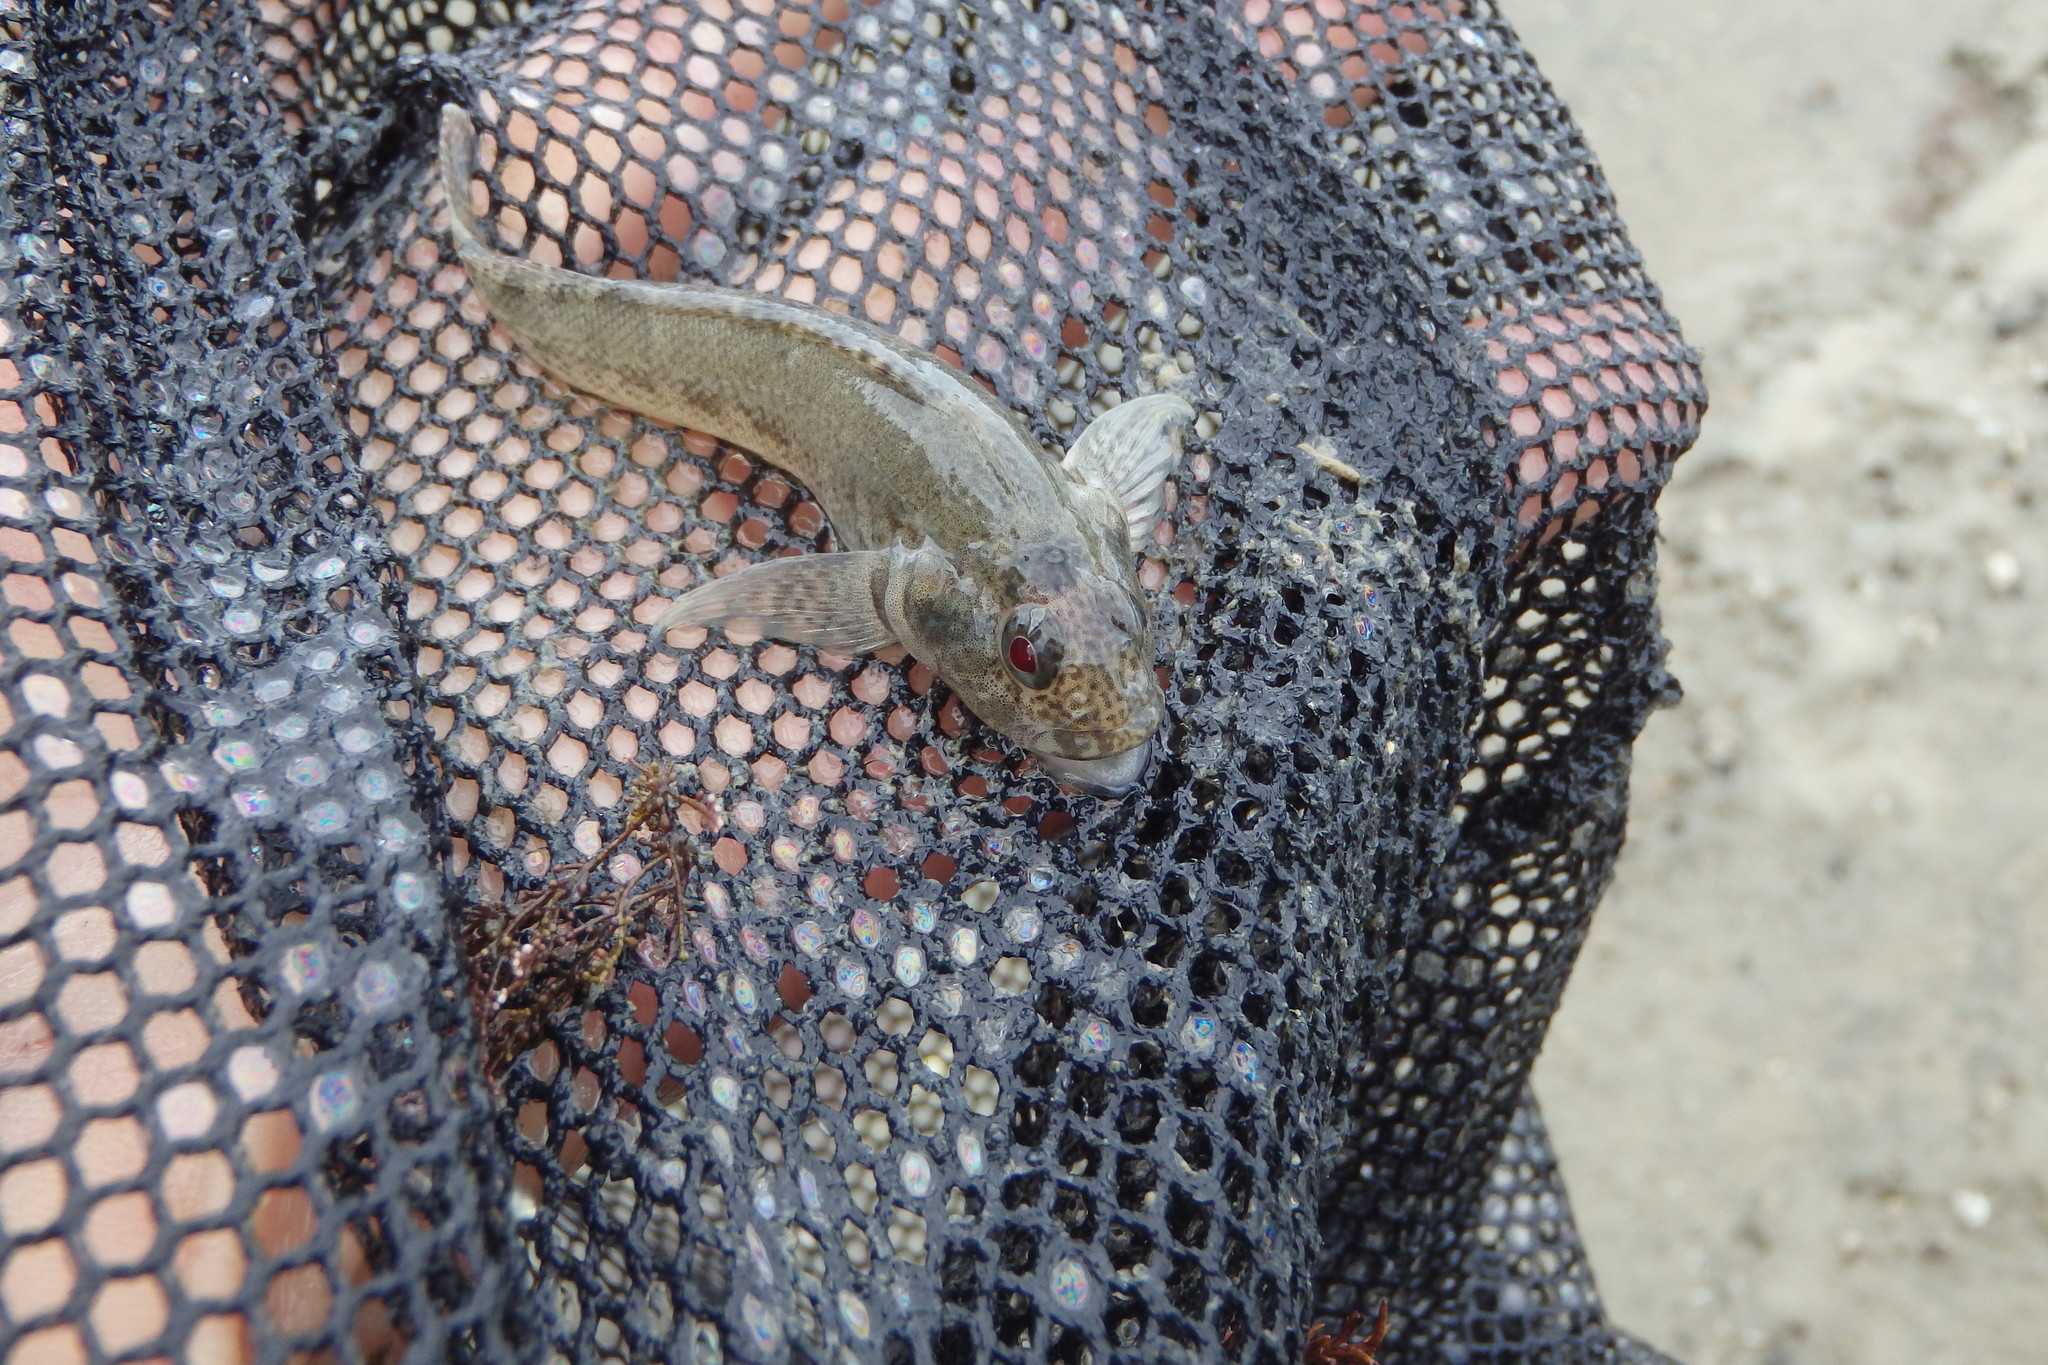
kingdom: Animalia
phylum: Chordata
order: Perciformes
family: Tripterygiidae
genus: Forsterygion
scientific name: Forsterygion capito
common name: Spotted robust triplefin
